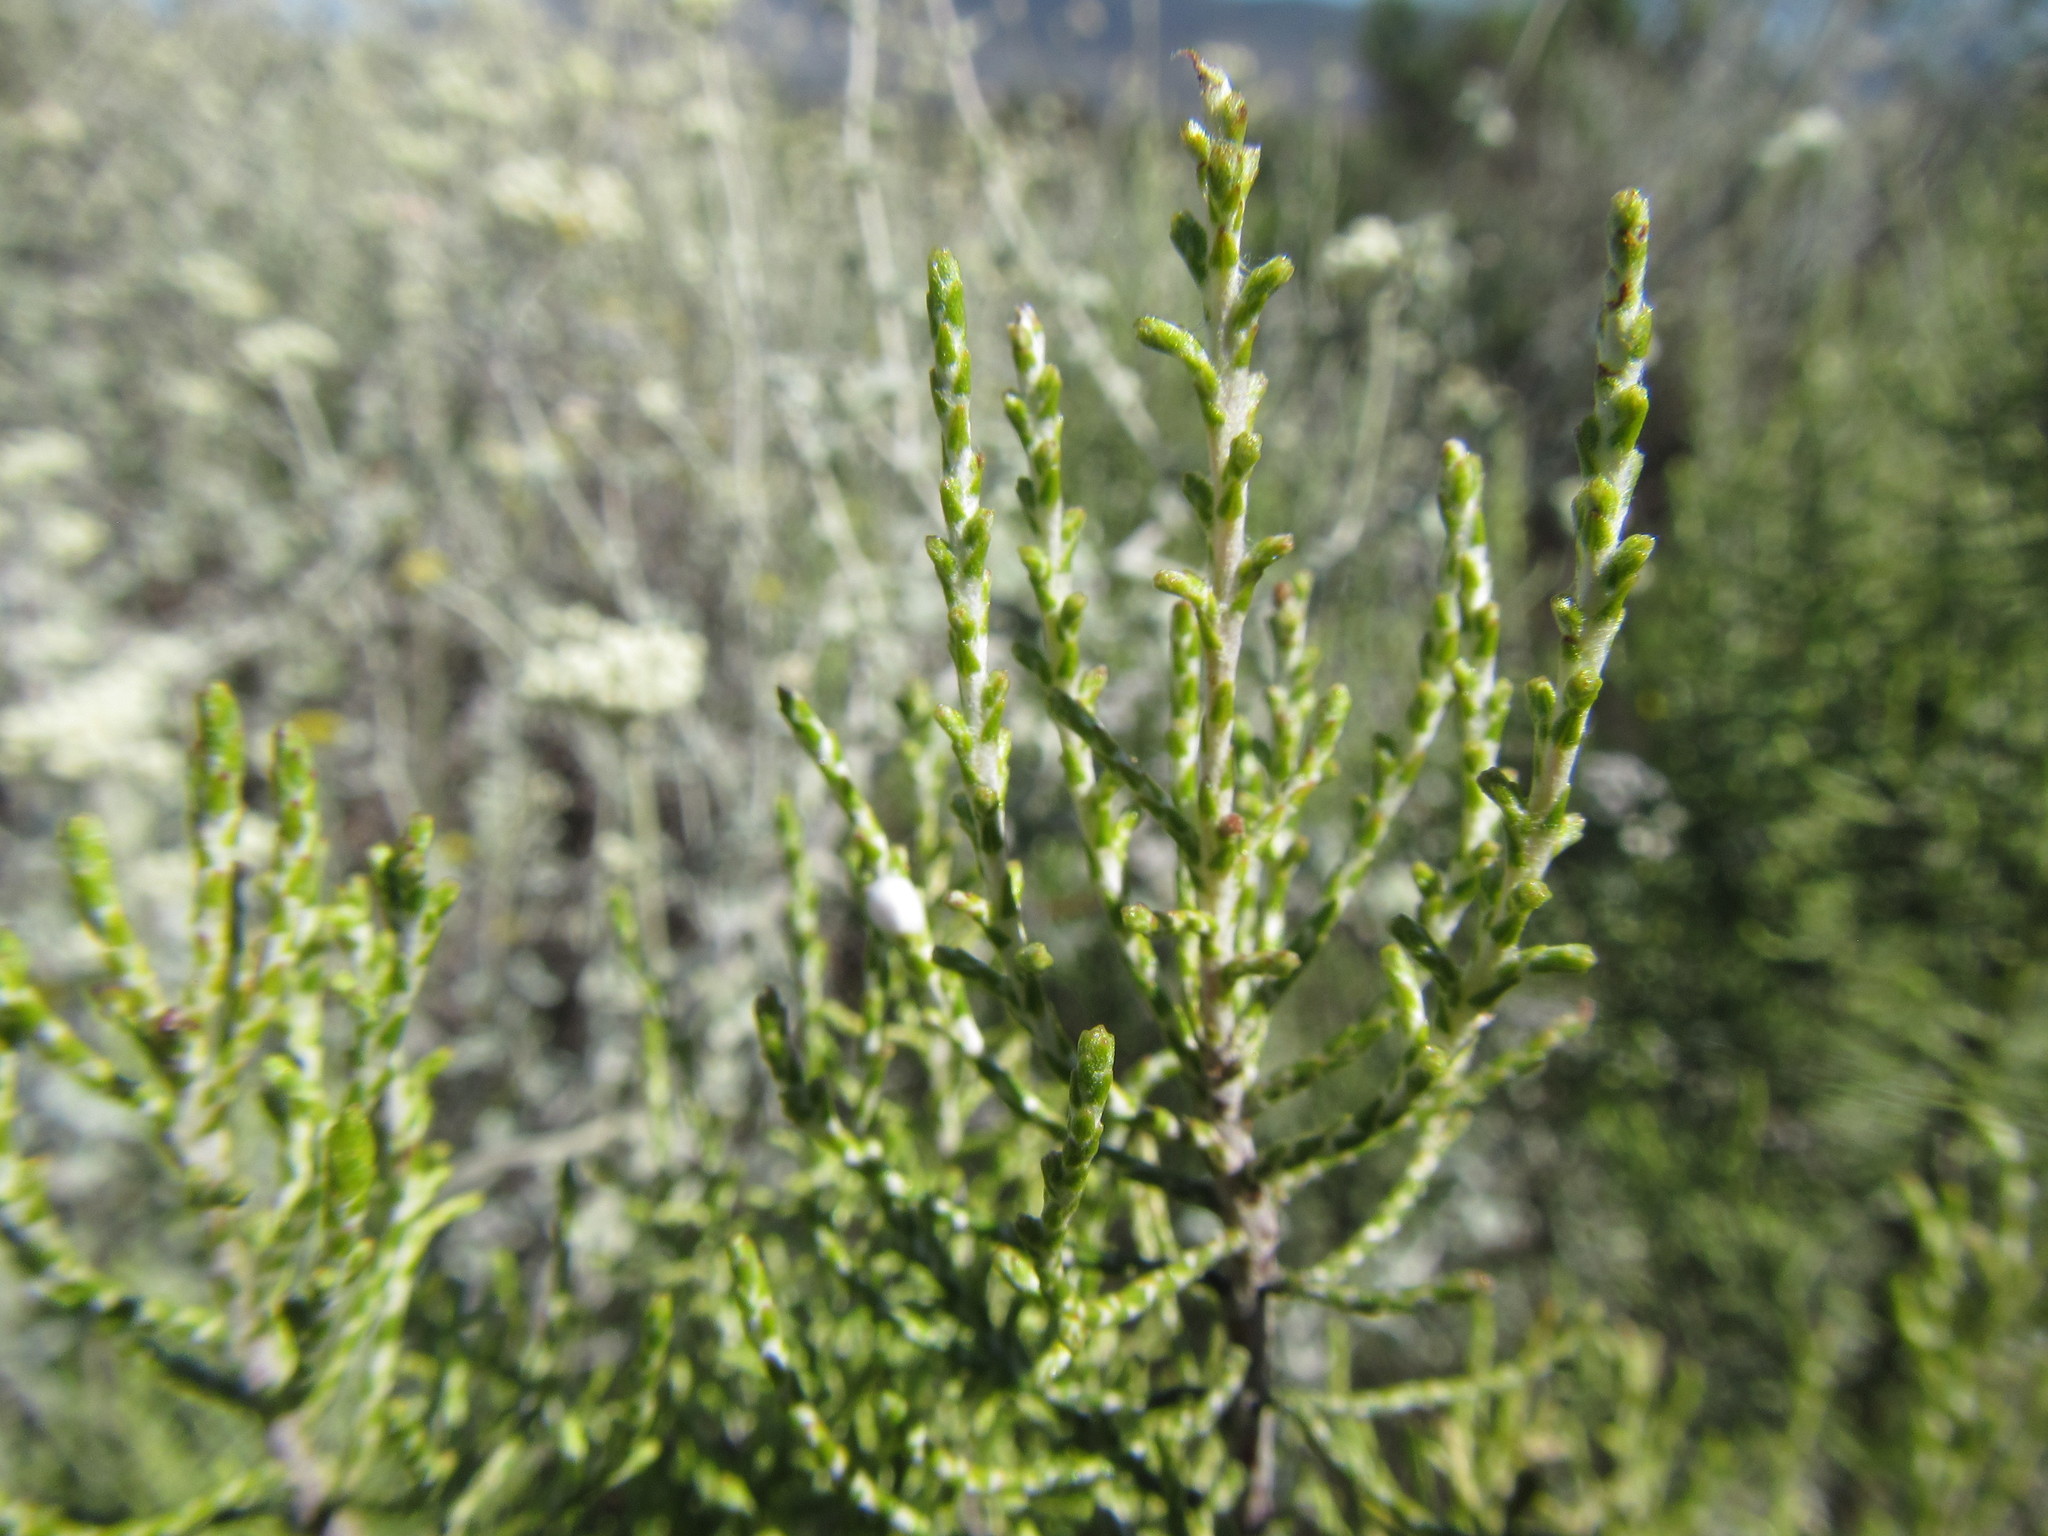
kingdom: Plantae
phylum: Tracheophyta
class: Magnoliopsida
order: Asterales
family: Asteraceae
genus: Dicerothamnus
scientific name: Dicerothamnus rhinocerotis
